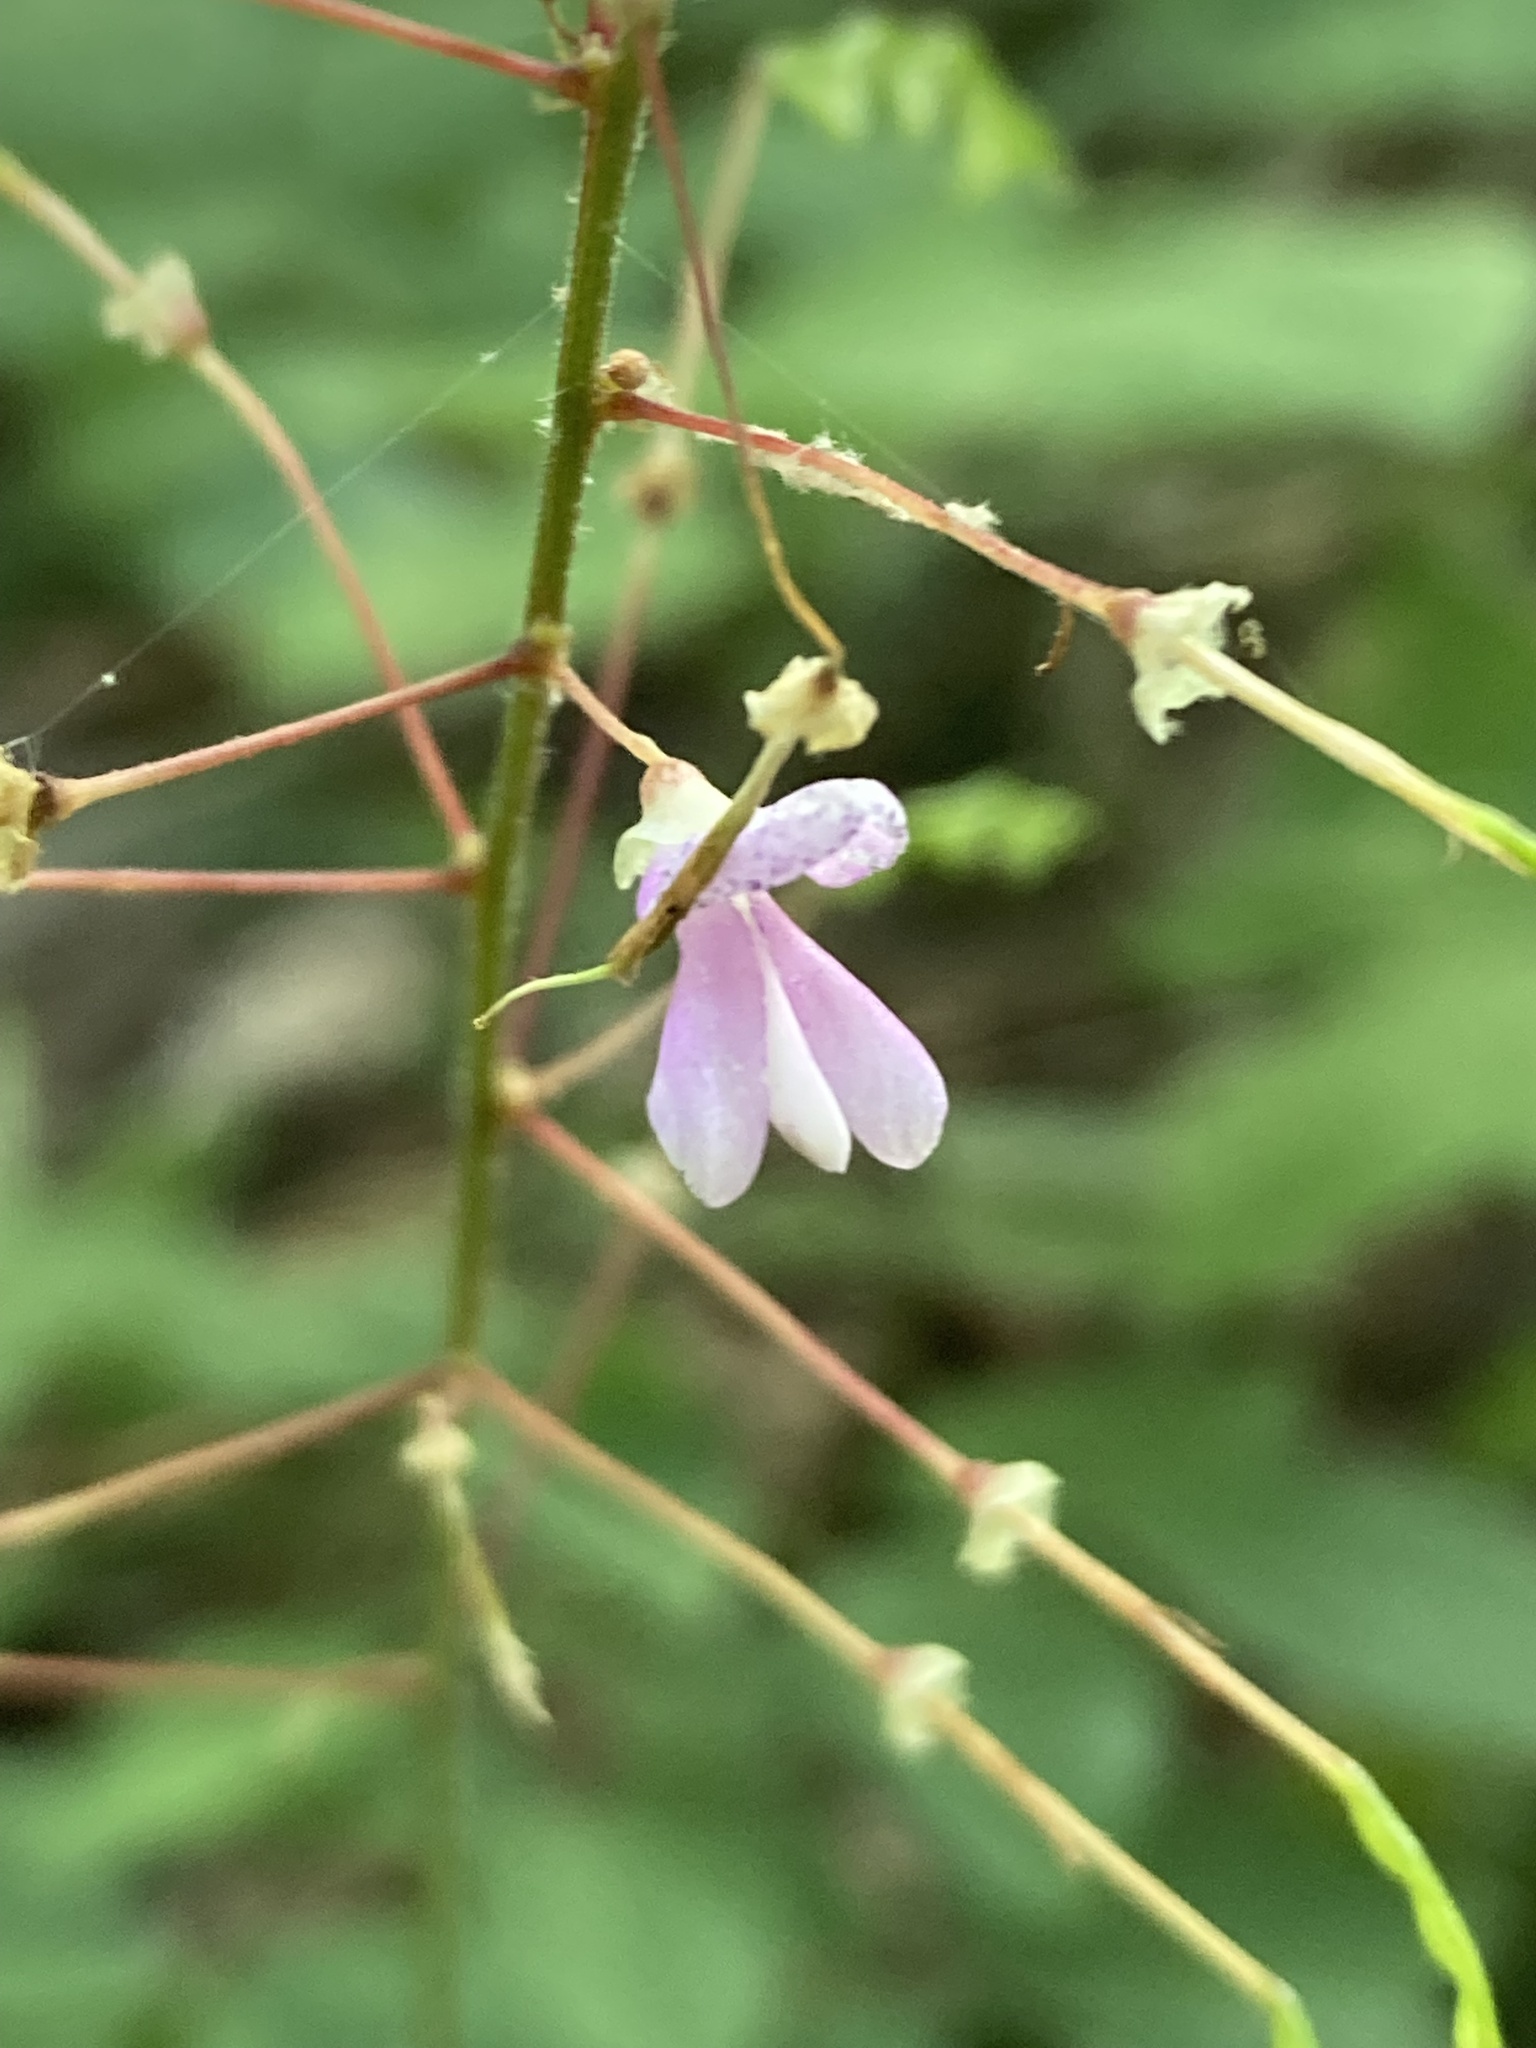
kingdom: Plantae
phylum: Tracheophyta
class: Magnoliopsida
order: Fabales
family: Fabaceae
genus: Hylodesmum
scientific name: Hylodesmum nudiflorum
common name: Bare-stemmed tick-trefoil
